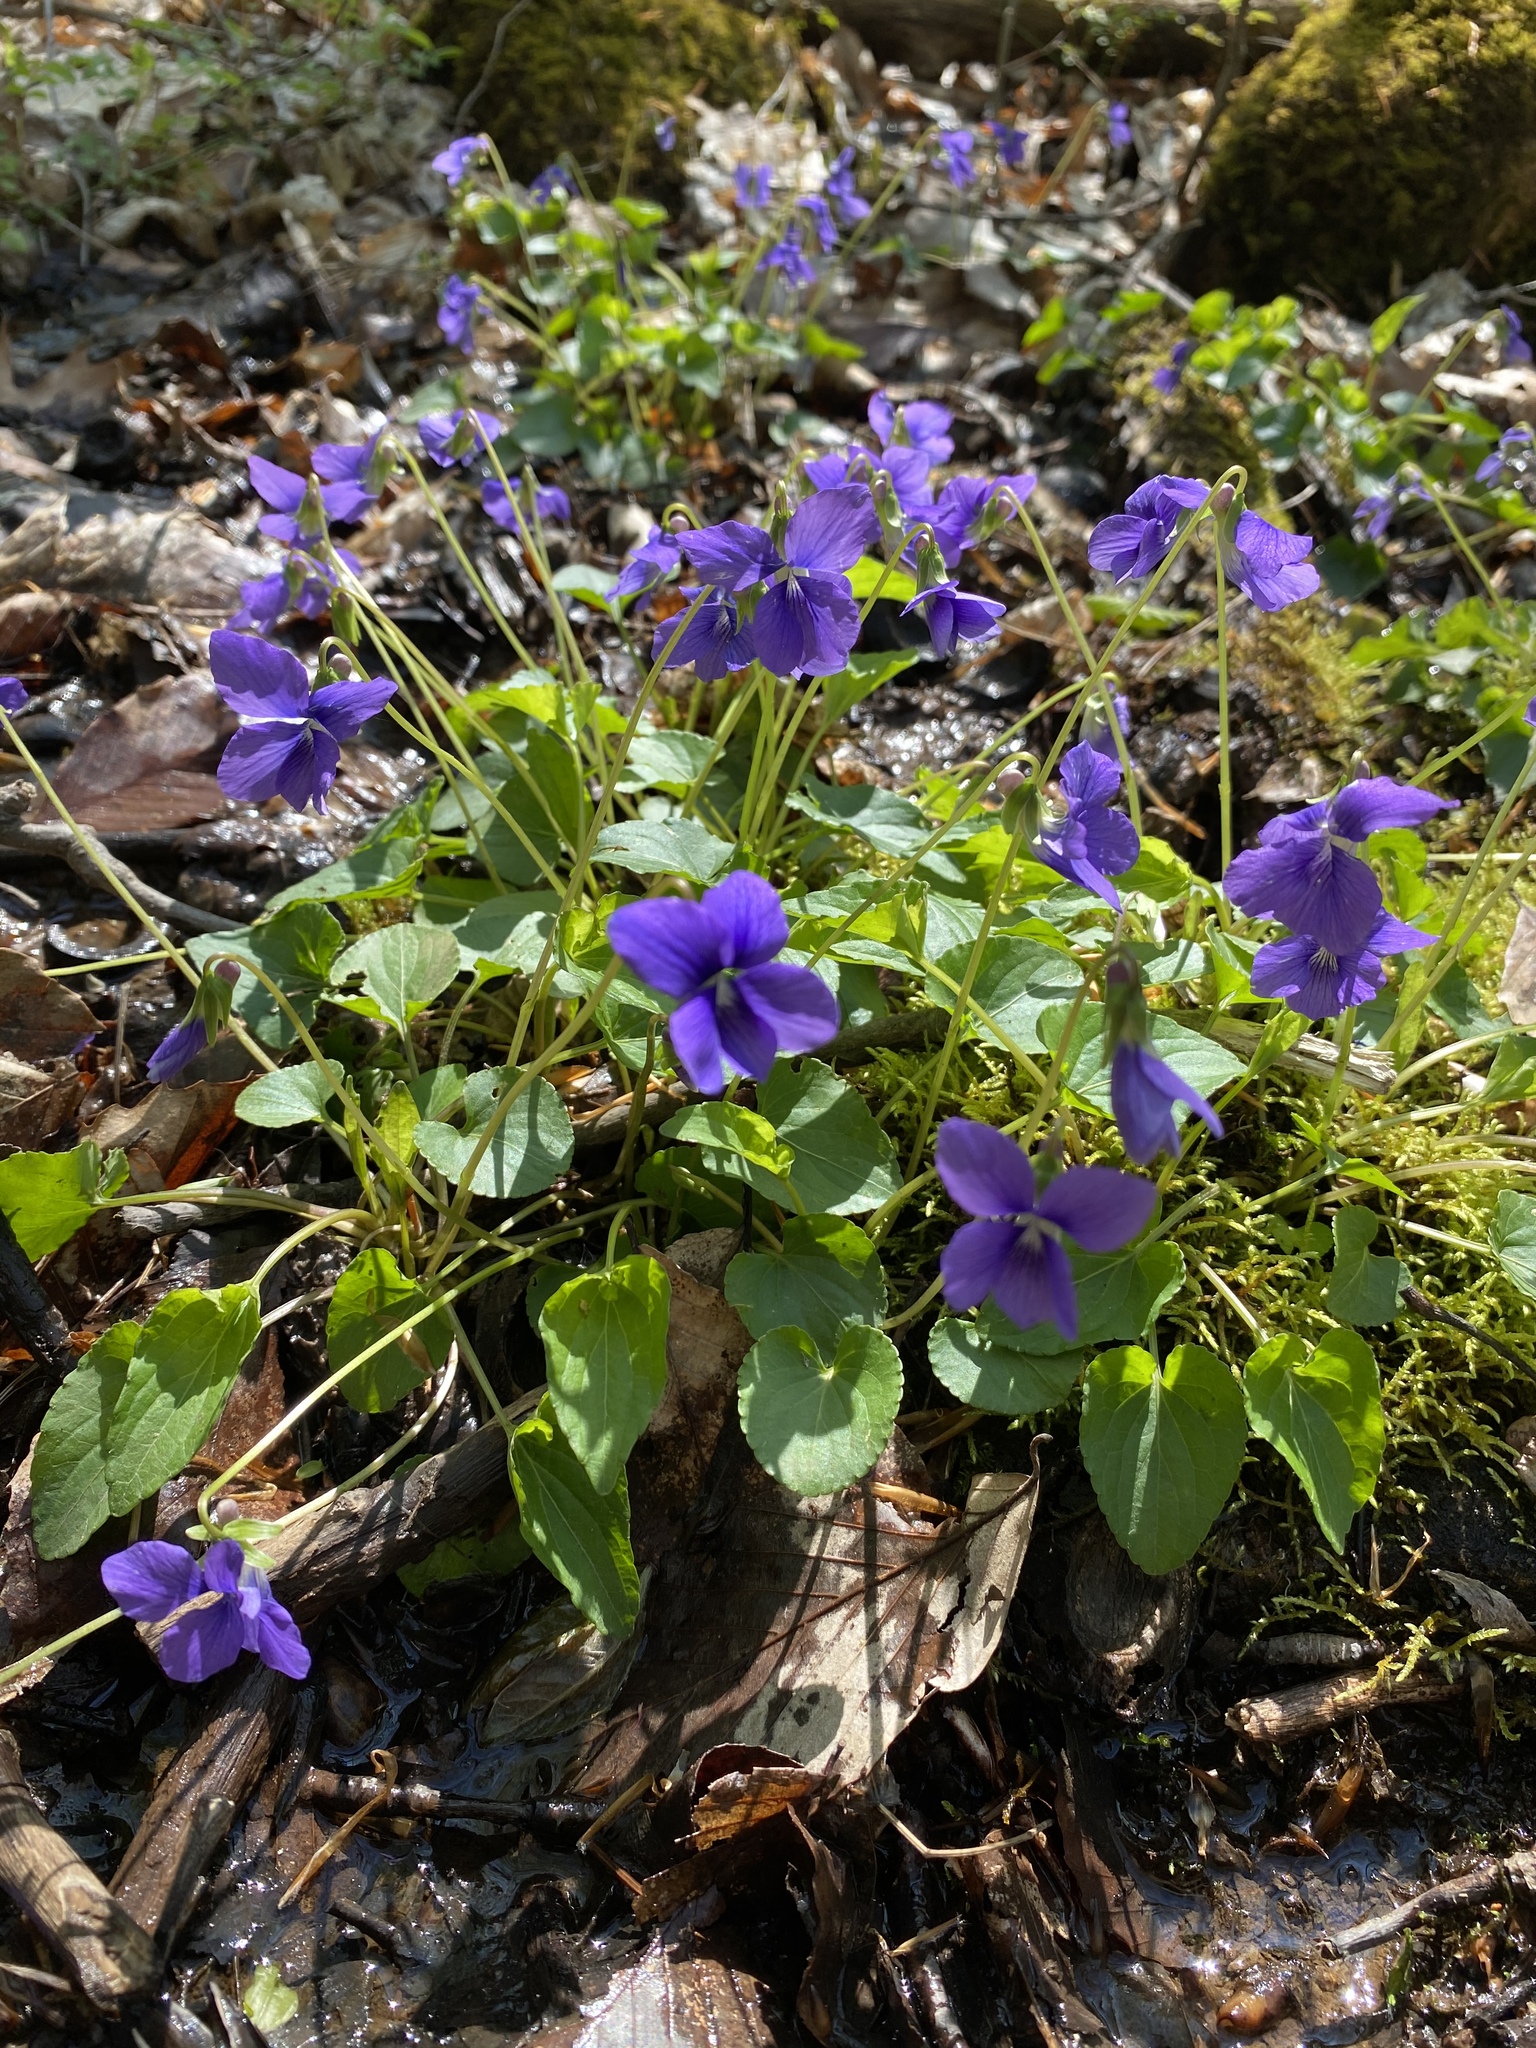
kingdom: Plantae
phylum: Tracheophyta
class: Magnoliopsida
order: Malpighiales
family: Violaceae
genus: Viola
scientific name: Viola cucullata
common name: Marsh blue violet
